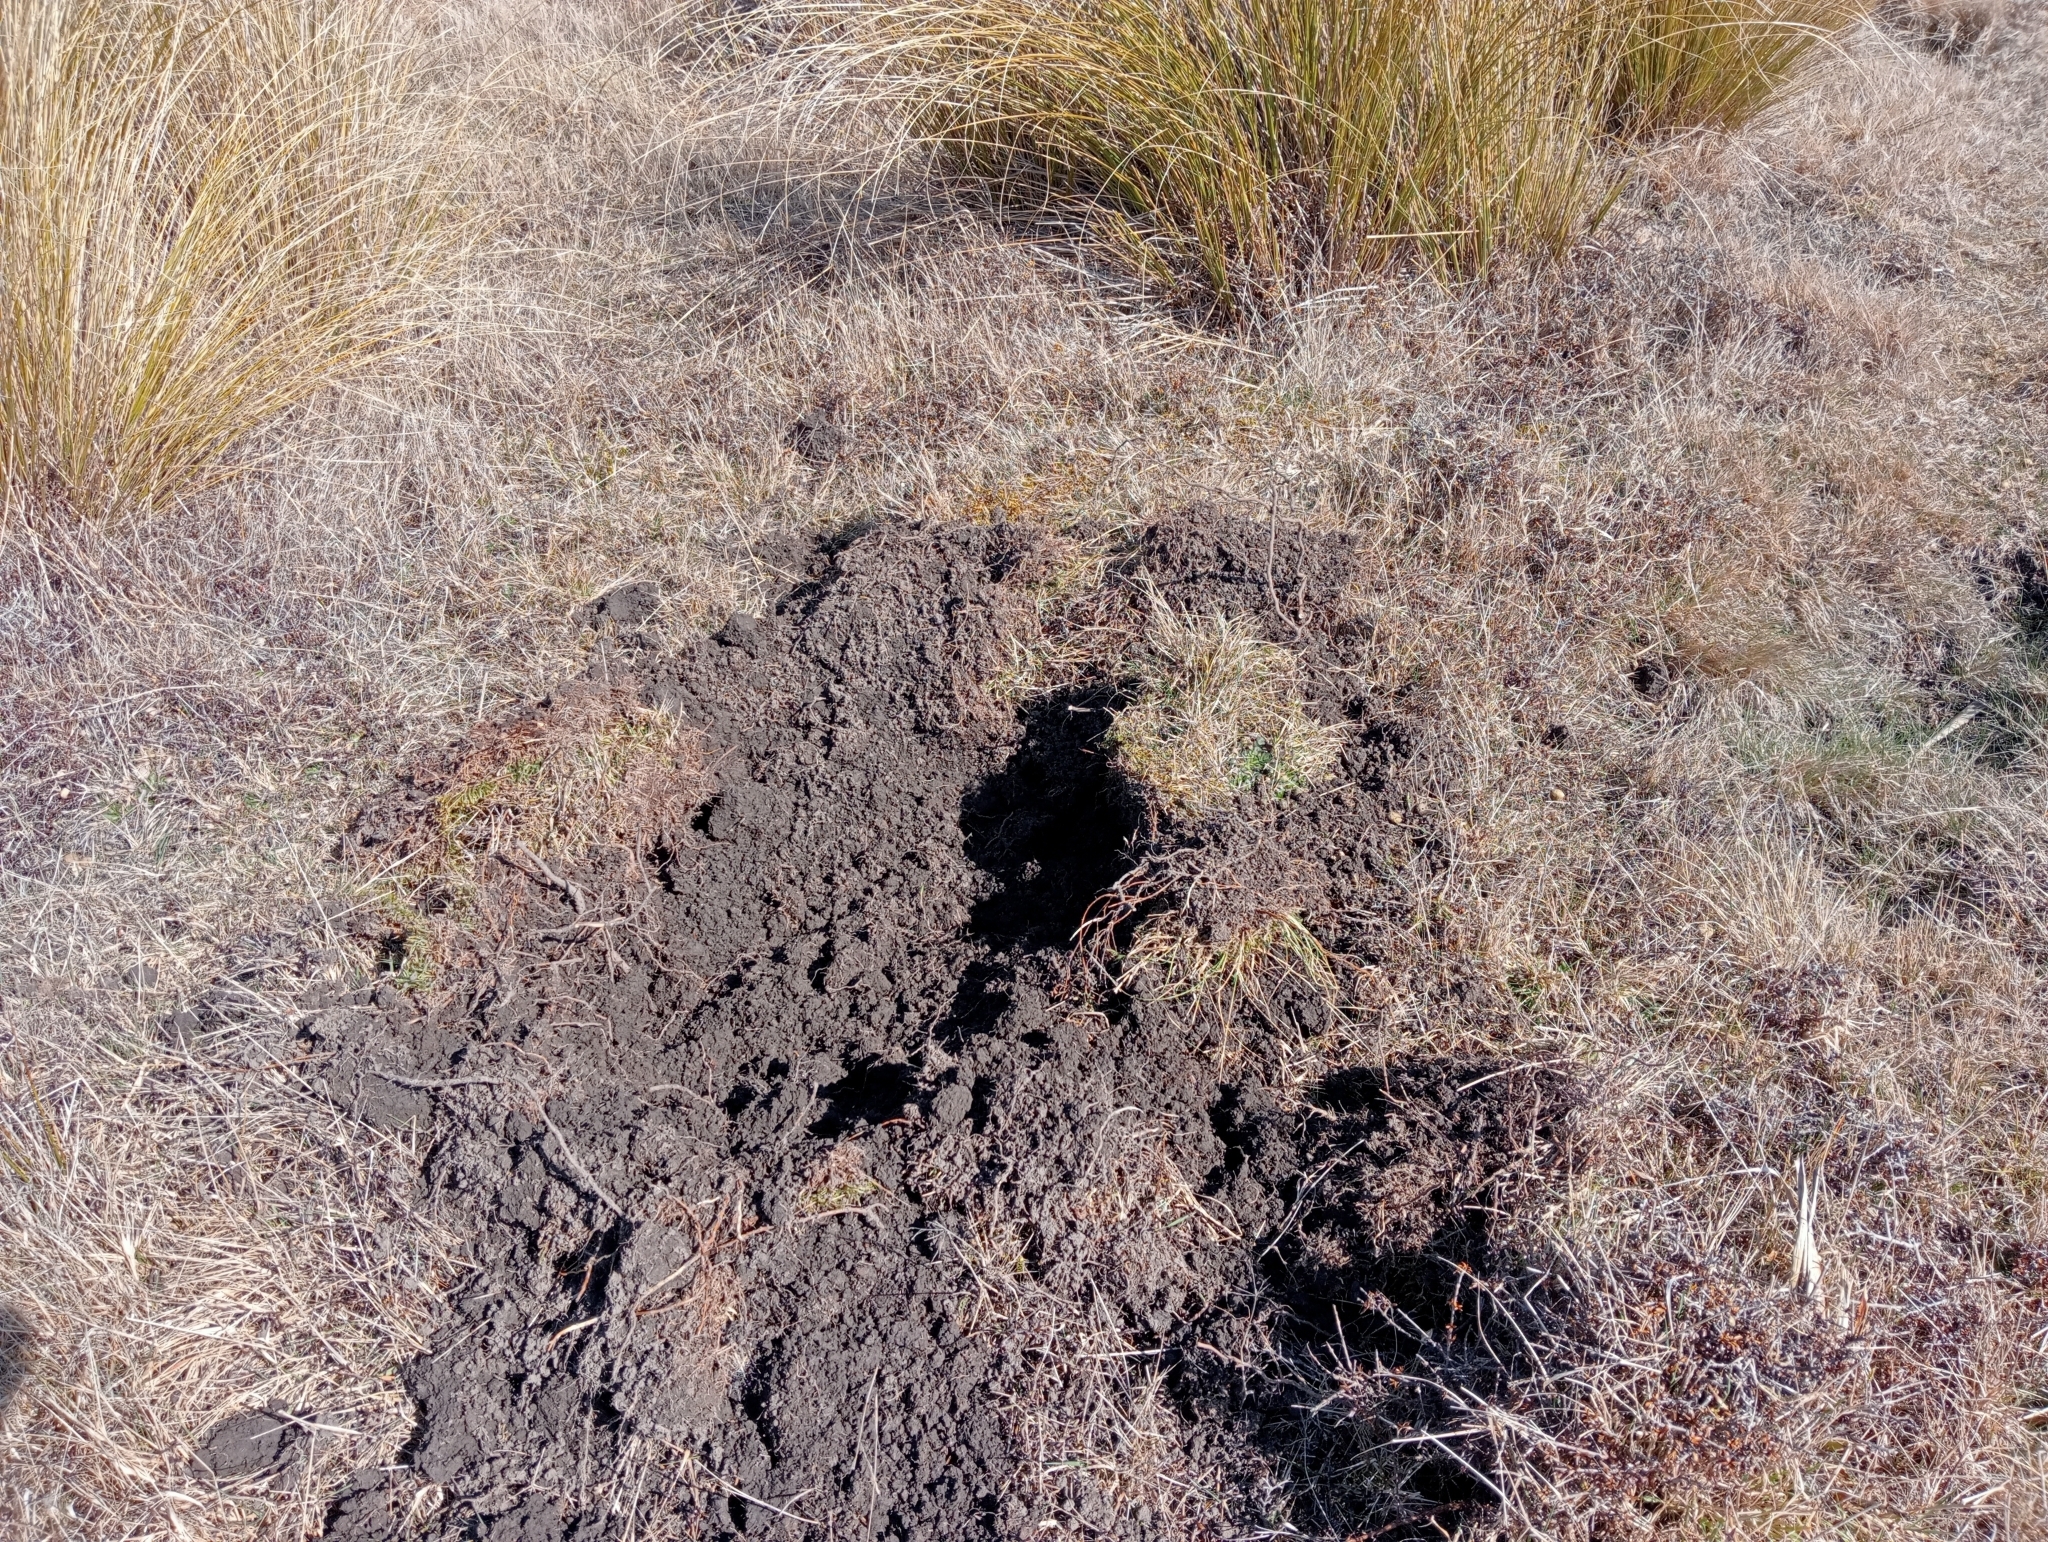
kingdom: Animalia
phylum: Chordata
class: Mammalia
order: Artiodactyla
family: Suidae
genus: Sus
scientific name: Sus scrofa
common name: Wild boar
